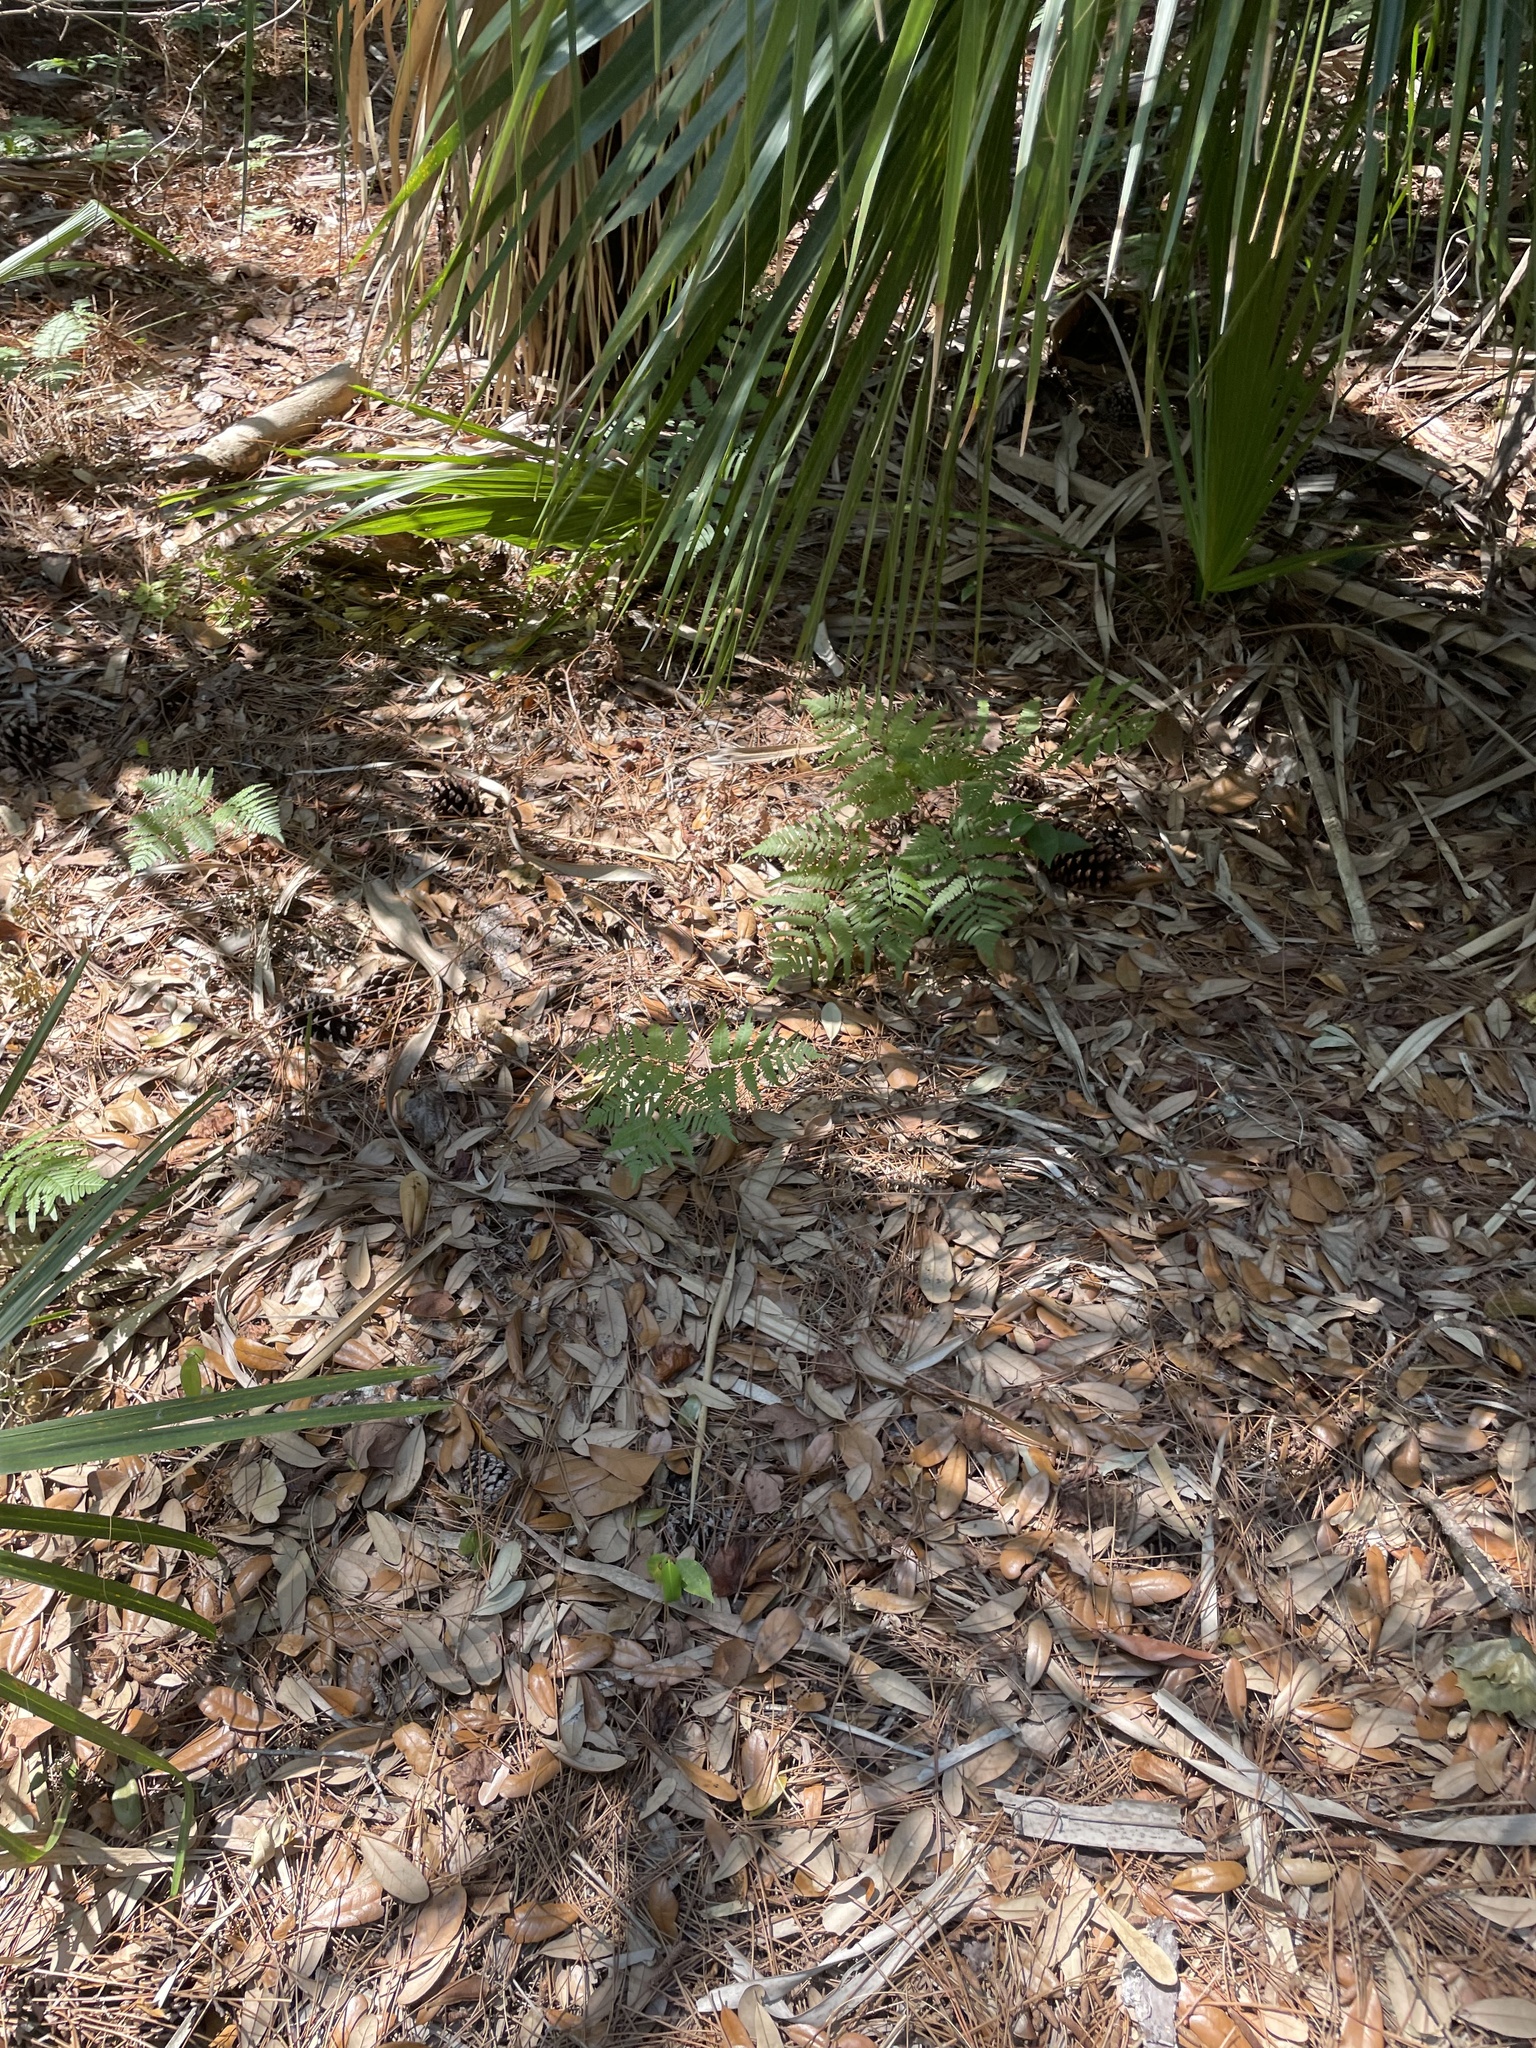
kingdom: Plantae
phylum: Tracheophyta
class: Polypodiopsida
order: Polypodiales
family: Dennstaedtiaceae
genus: Pteridium
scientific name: Pteridium
